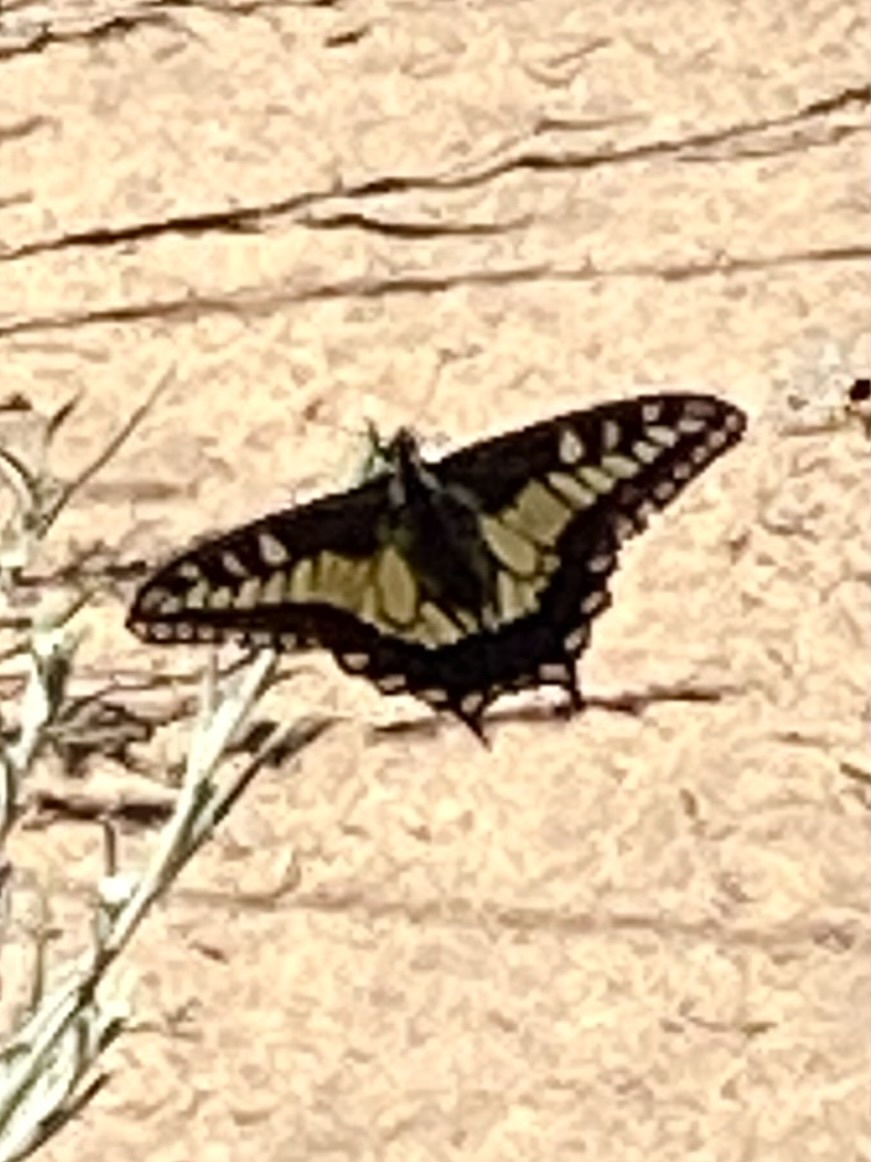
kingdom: Animalia
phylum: Arthropoda
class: Insecta
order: Lepidoptera
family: Papilionidae
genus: Papilio
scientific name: Papilio zelicaon
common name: Anise swallowtail
